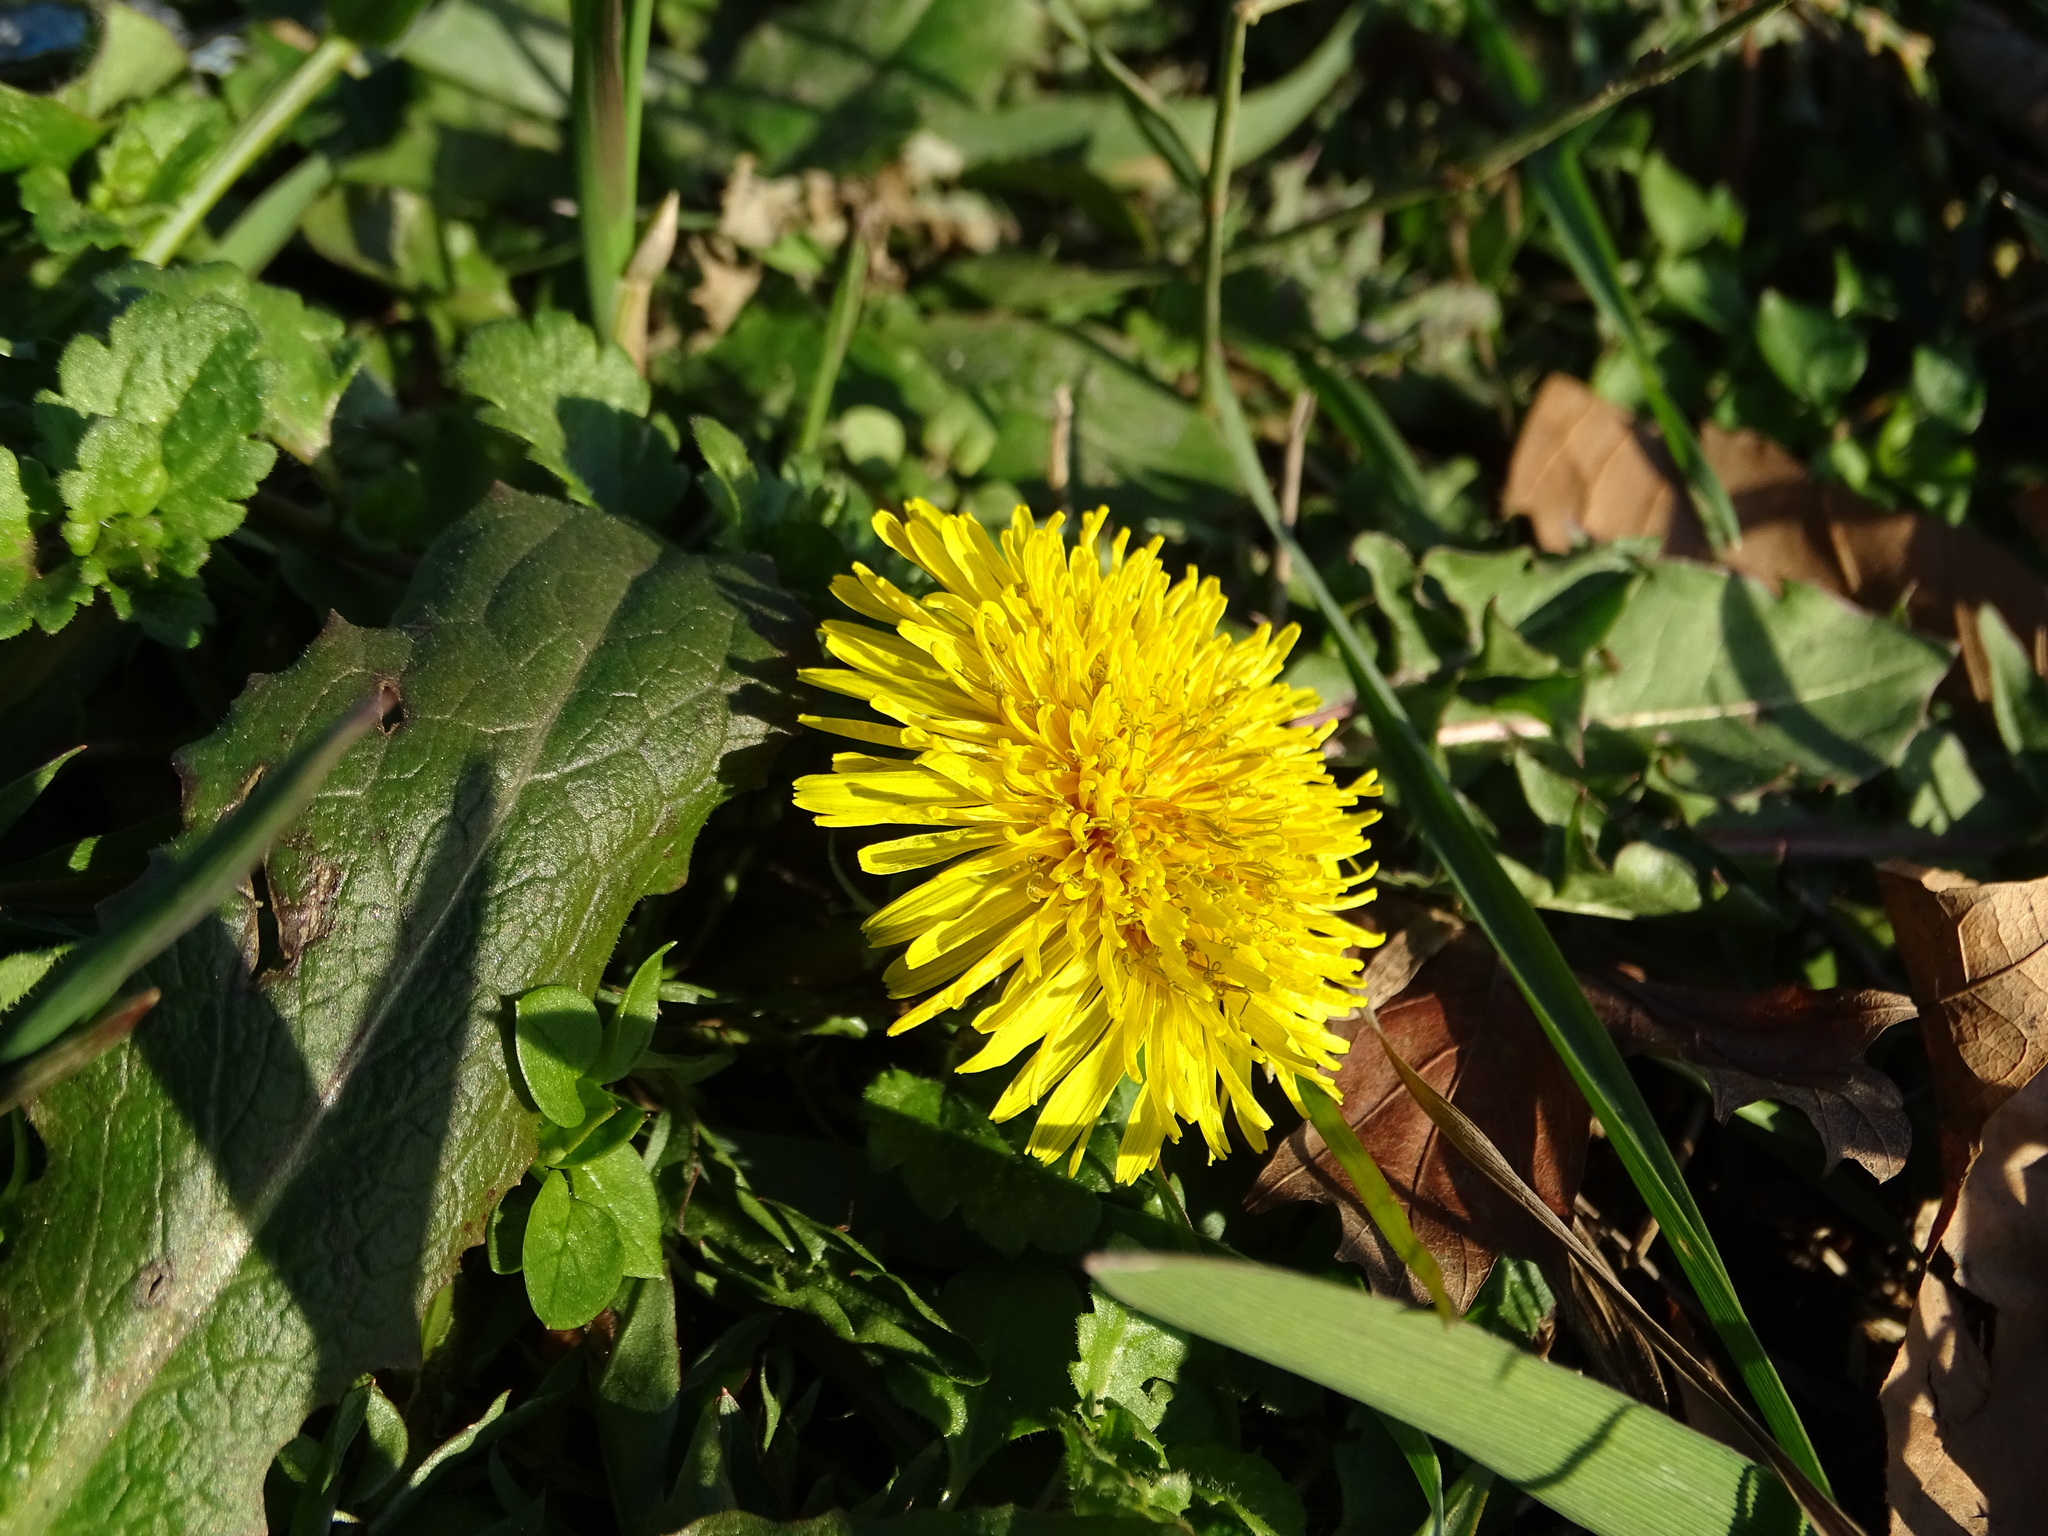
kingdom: Plantae
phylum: Tracheophyta
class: Magnoliopsida
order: Asterales
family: Asteraceae
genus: Taraxacum
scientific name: Taraxacum
